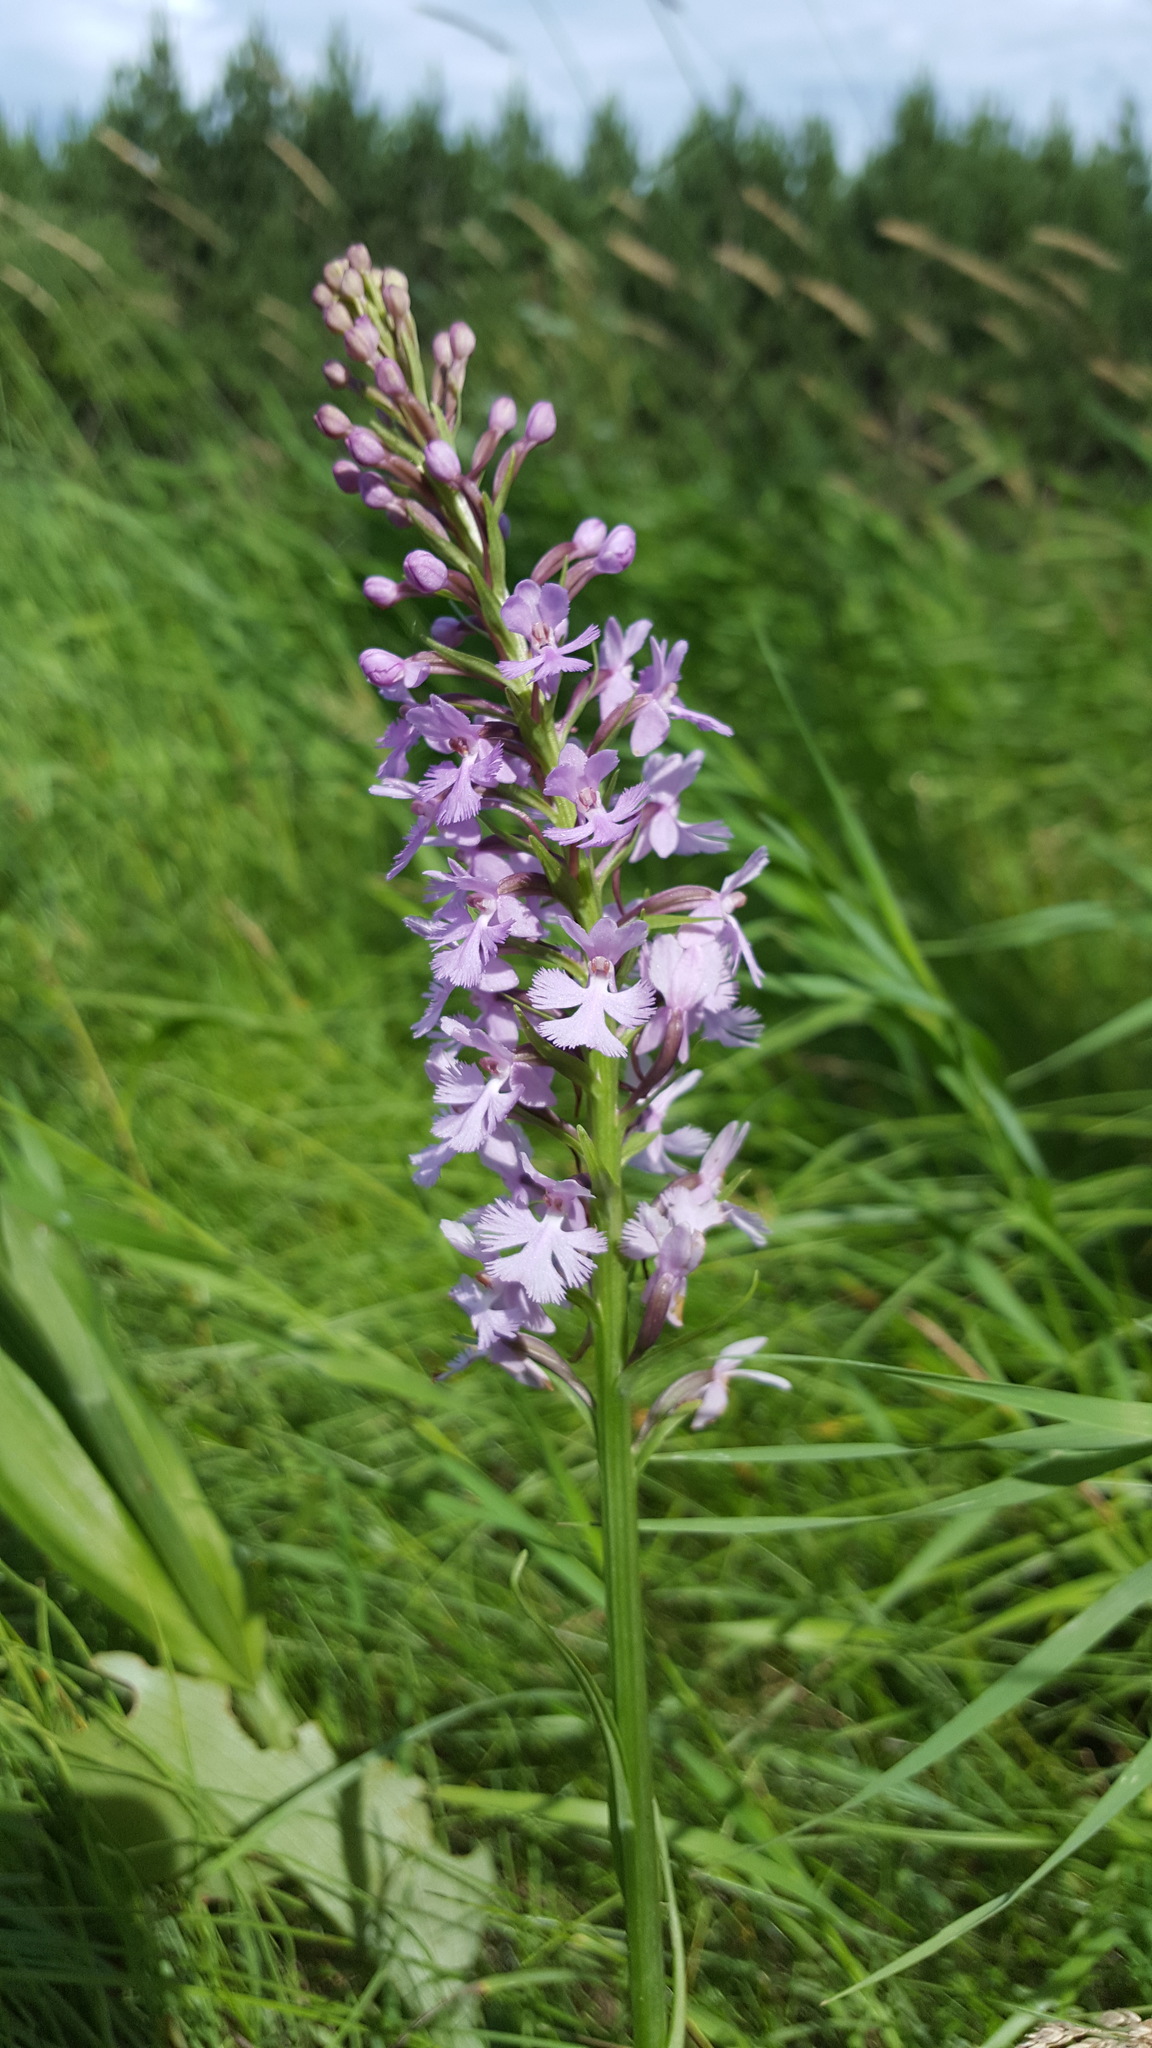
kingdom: Plantae
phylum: Tracheophyta
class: Liliopsida
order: Asparagales
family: Orchidaceae
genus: Platanthera
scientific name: Platanthera psycodes
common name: Lesser purple fringed orchid
